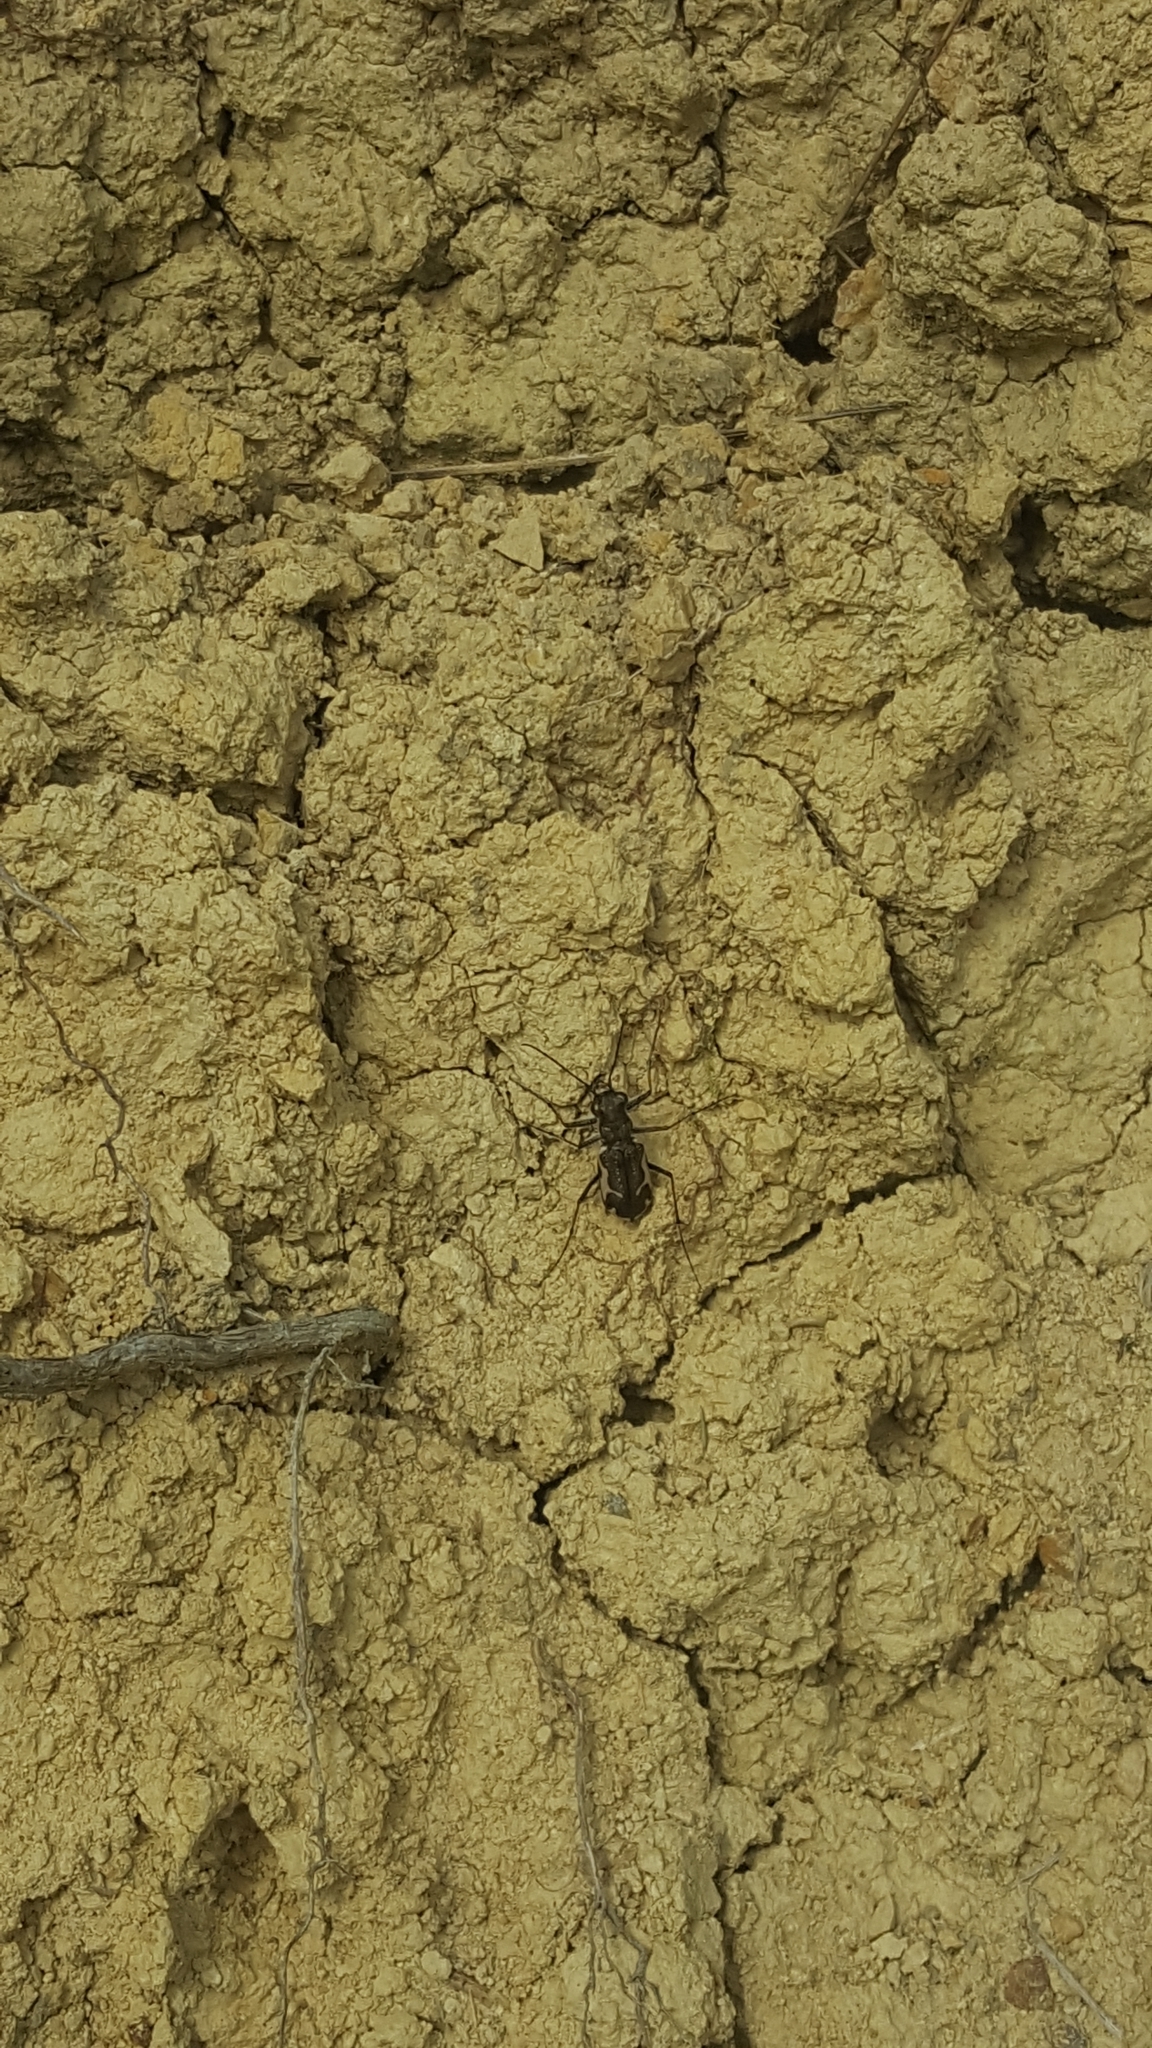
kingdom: Animalia
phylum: Arthropoda
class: Insecta
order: Coleoptera
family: Carabidae
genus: Neocicindela
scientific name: Neocicindela tuberculata
